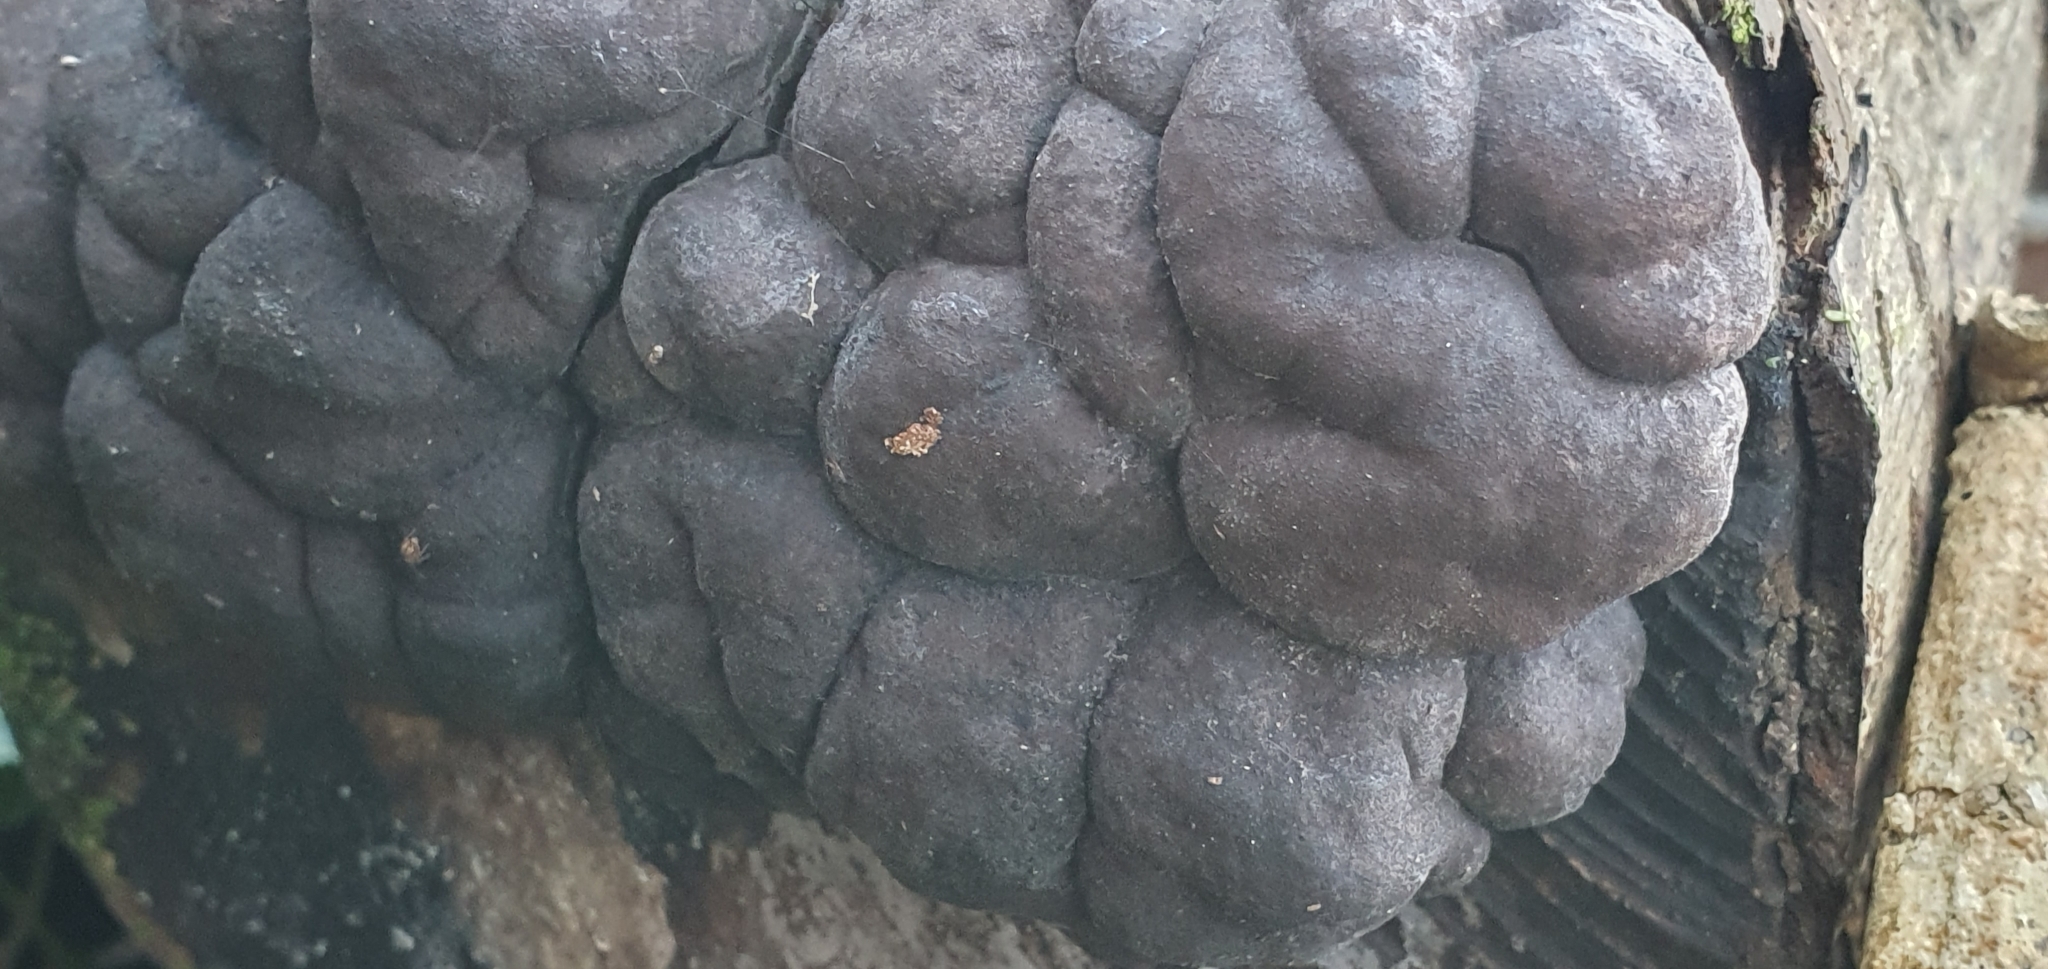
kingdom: Fungi
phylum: Ascomycota
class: Sordariomycetes
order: Xylariales
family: Hypoxylaceae
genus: Daldinia
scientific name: Daldinia concentrica
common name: Cramp balls
